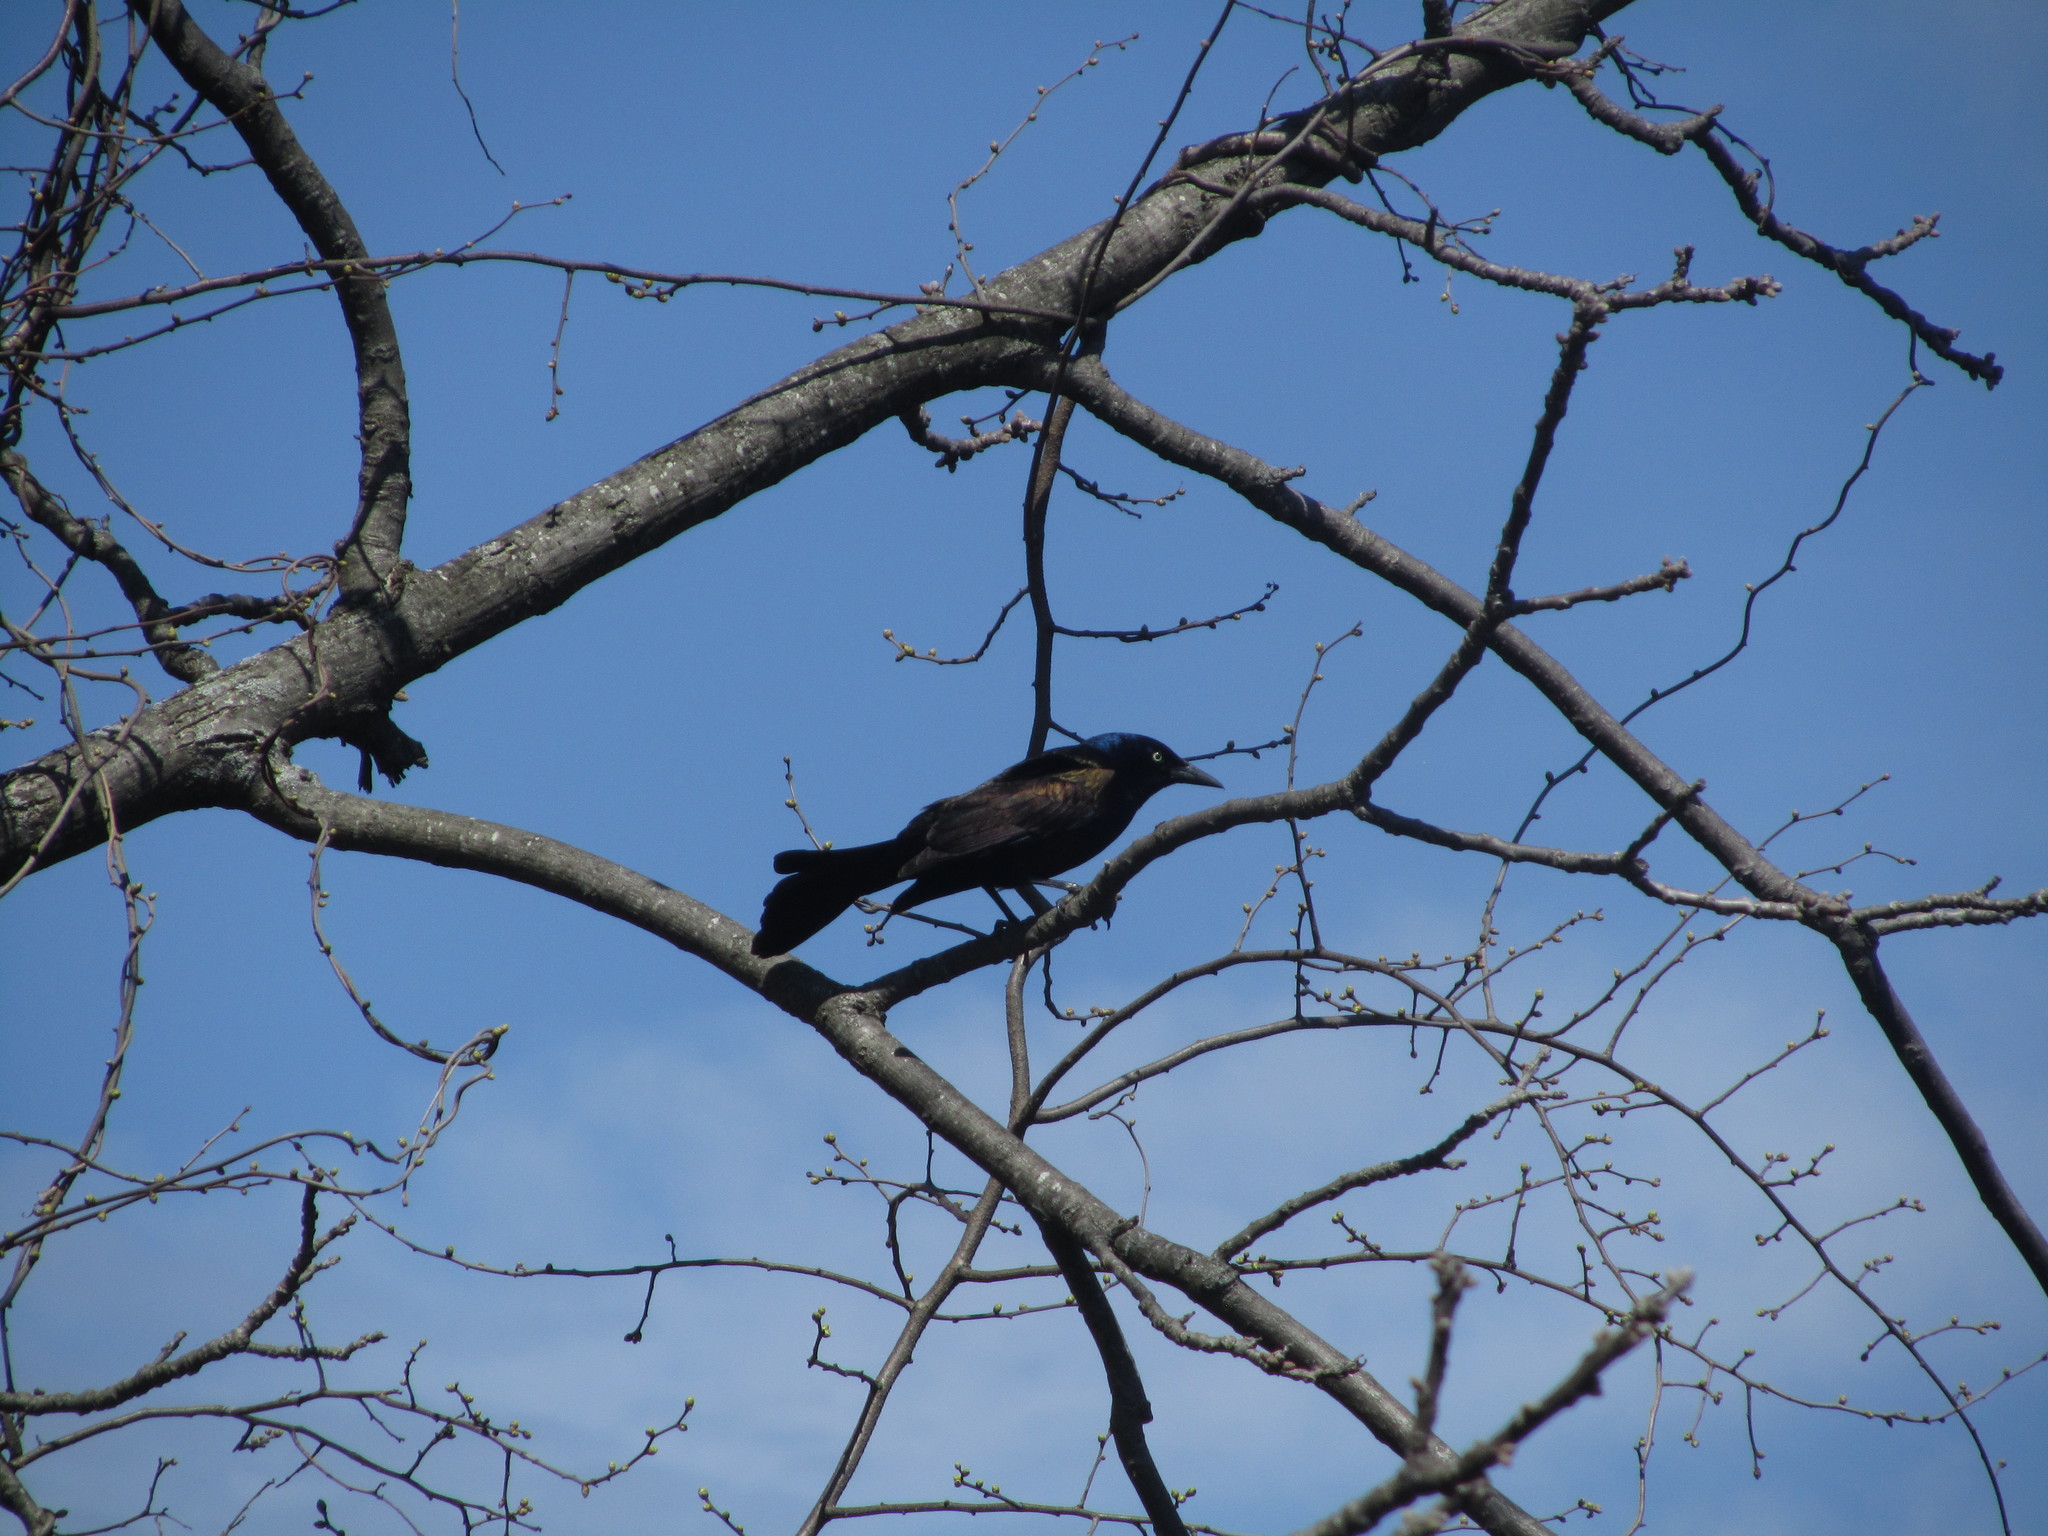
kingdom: Animalia
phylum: Chordata
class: Aves
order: Passeriformes
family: Icteridae
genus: Quiscalus
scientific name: Quiscalus quiscula
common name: Common grackle
